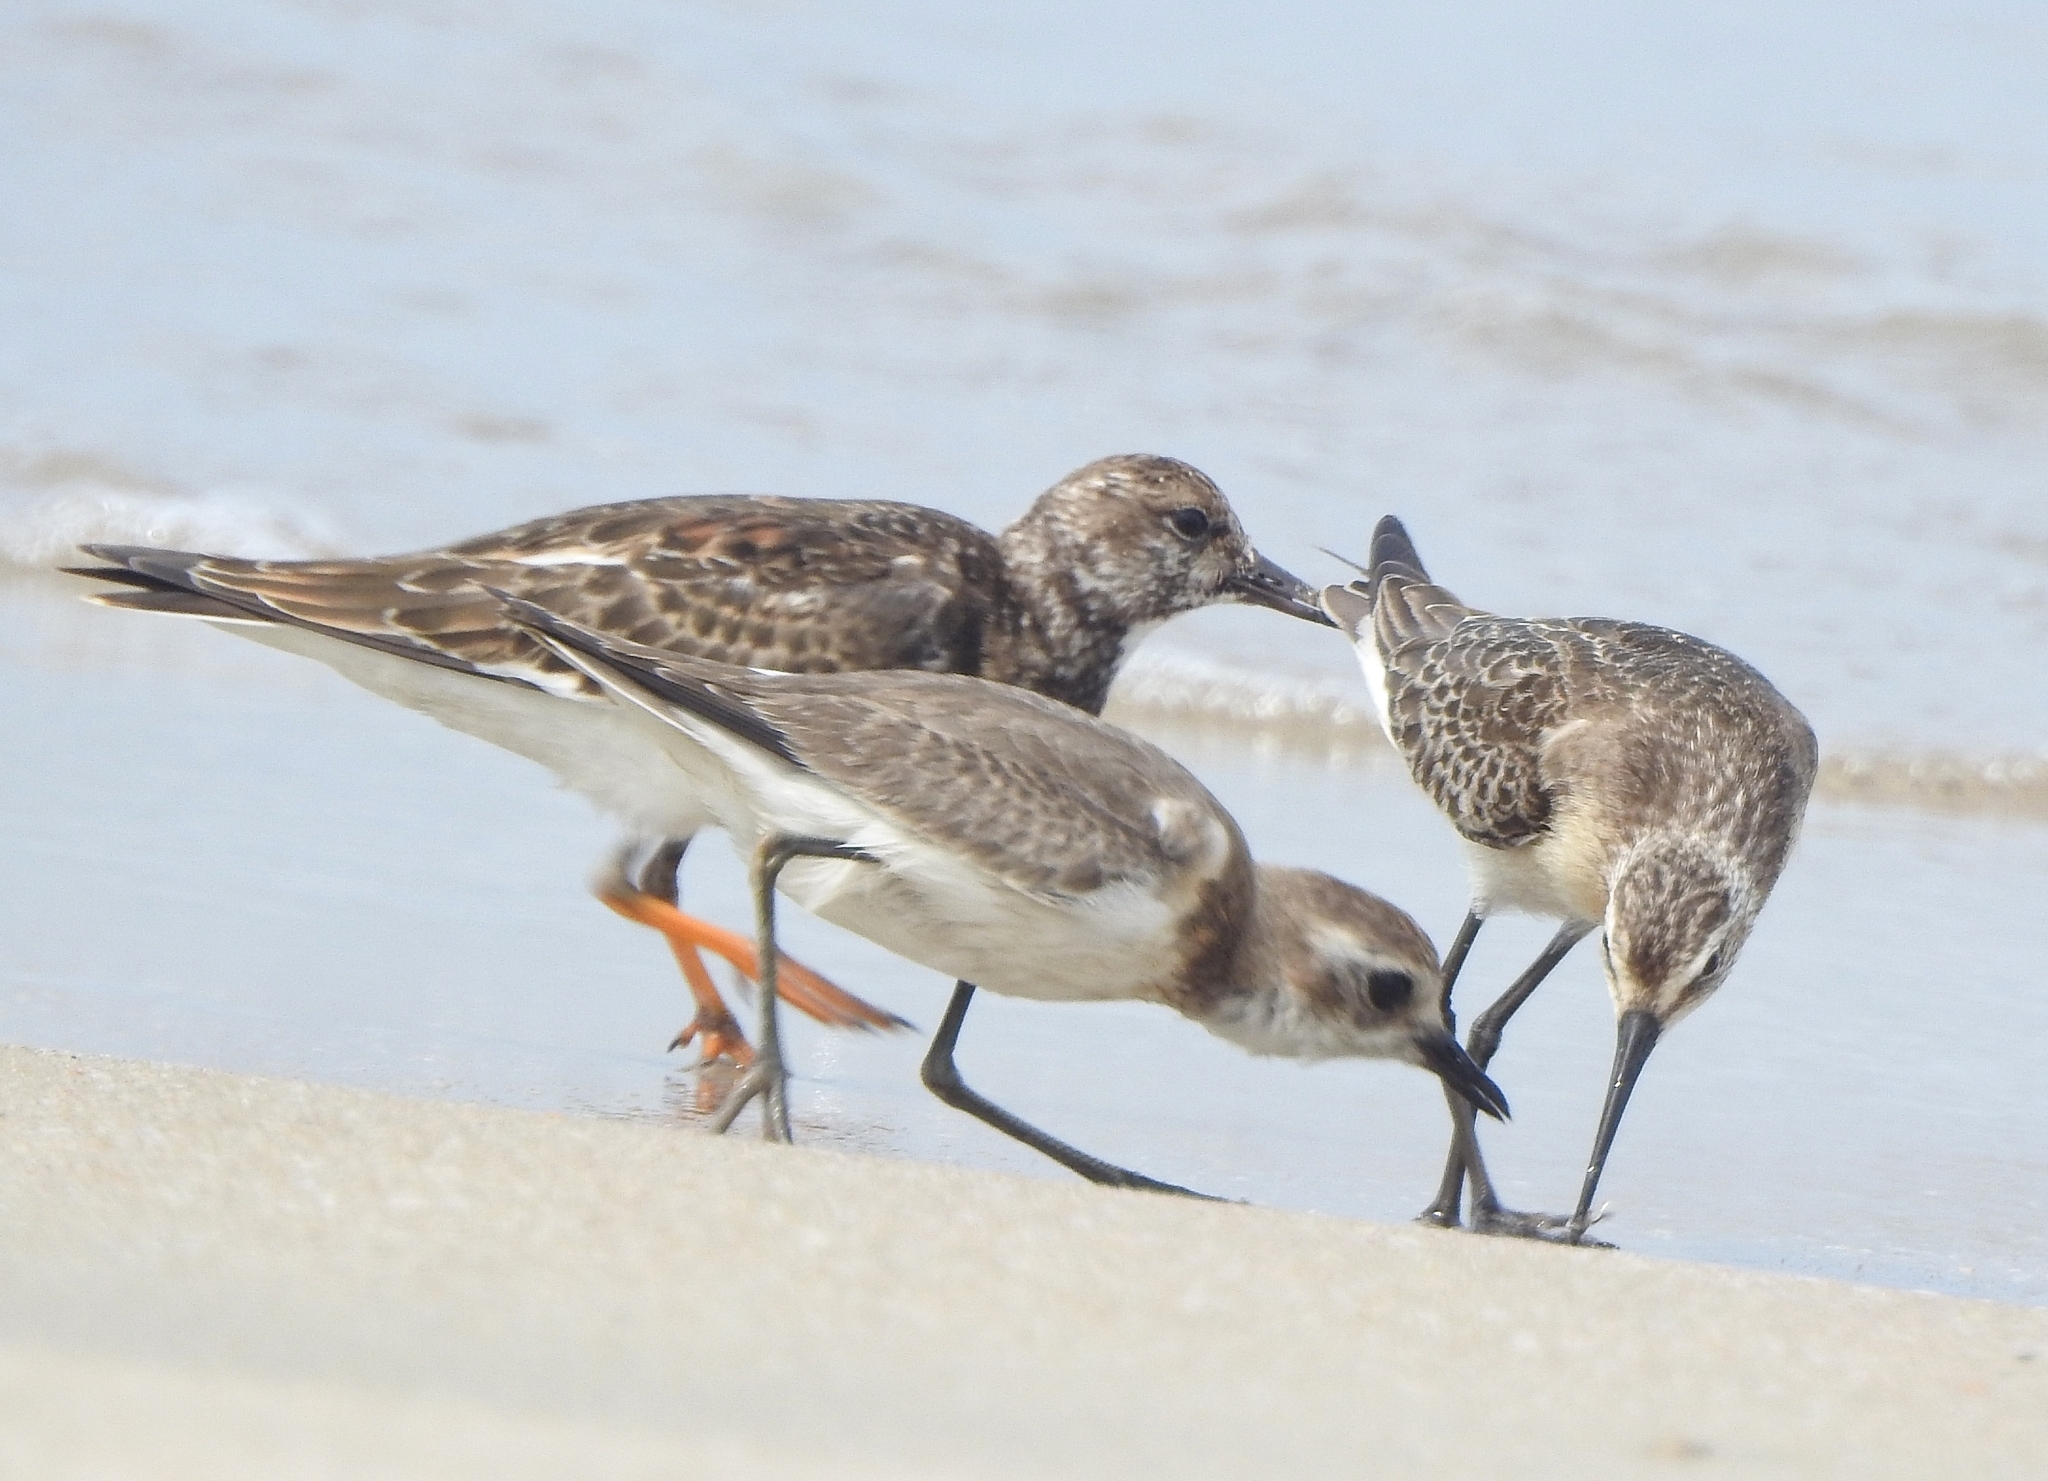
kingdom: Animalia
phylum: Chordata
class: Aves
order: Charadriiformes
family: Scolopacidae
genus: Arenaria
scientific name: Arenaria interpres
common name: Ruddy turnstone
